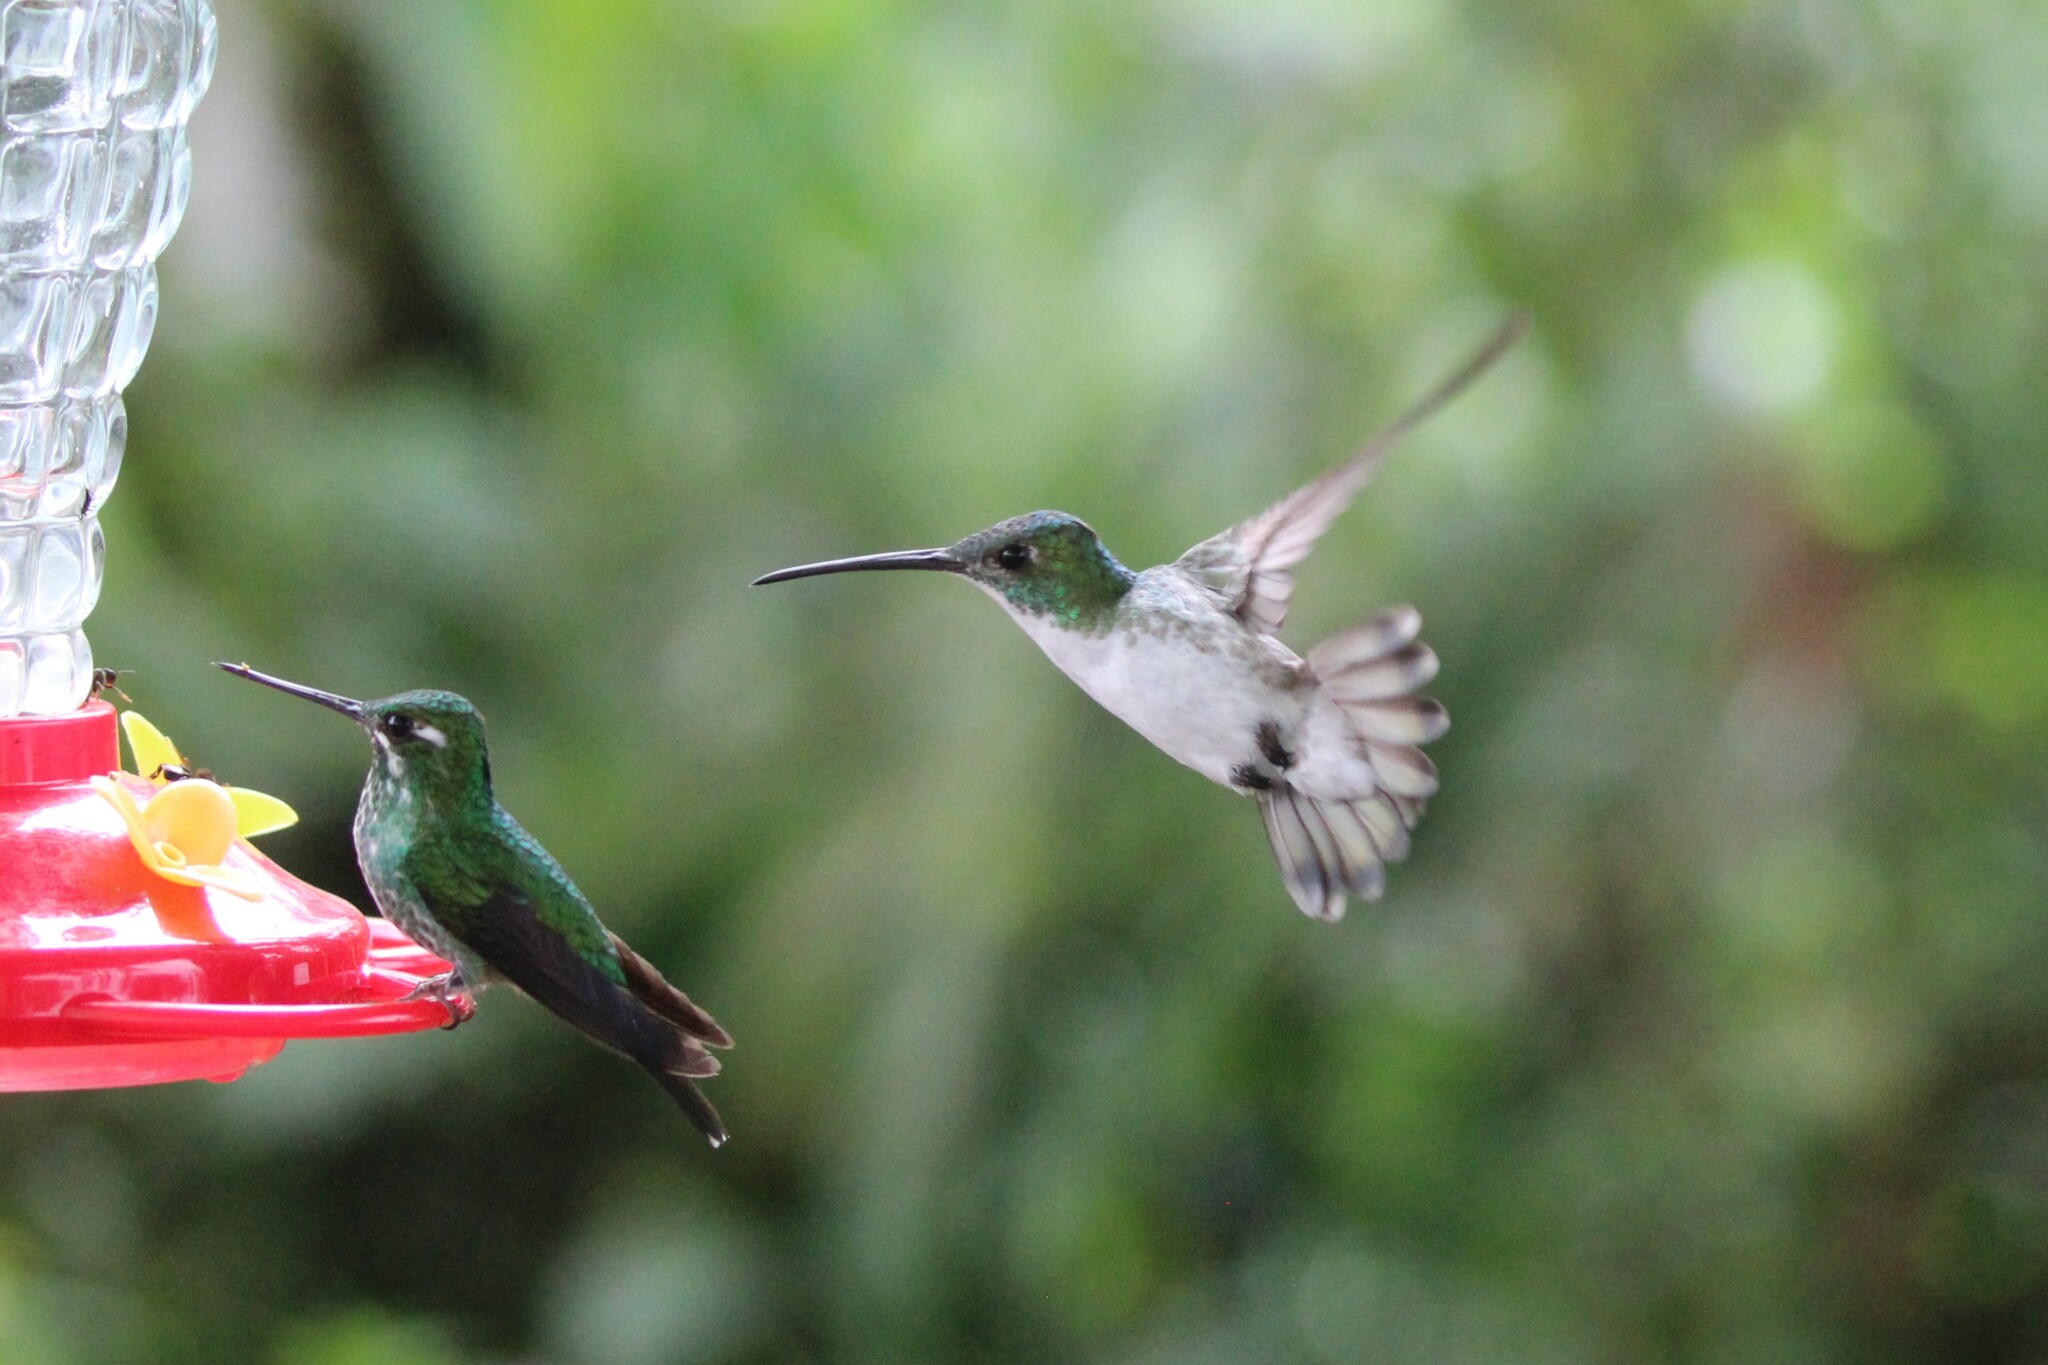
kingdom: Animalia
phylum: Chordata
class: Aves
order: Apodiformes
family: Trochilidae
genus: Uranomitra
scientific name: Uranomitra franciae
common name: Andean emerald
